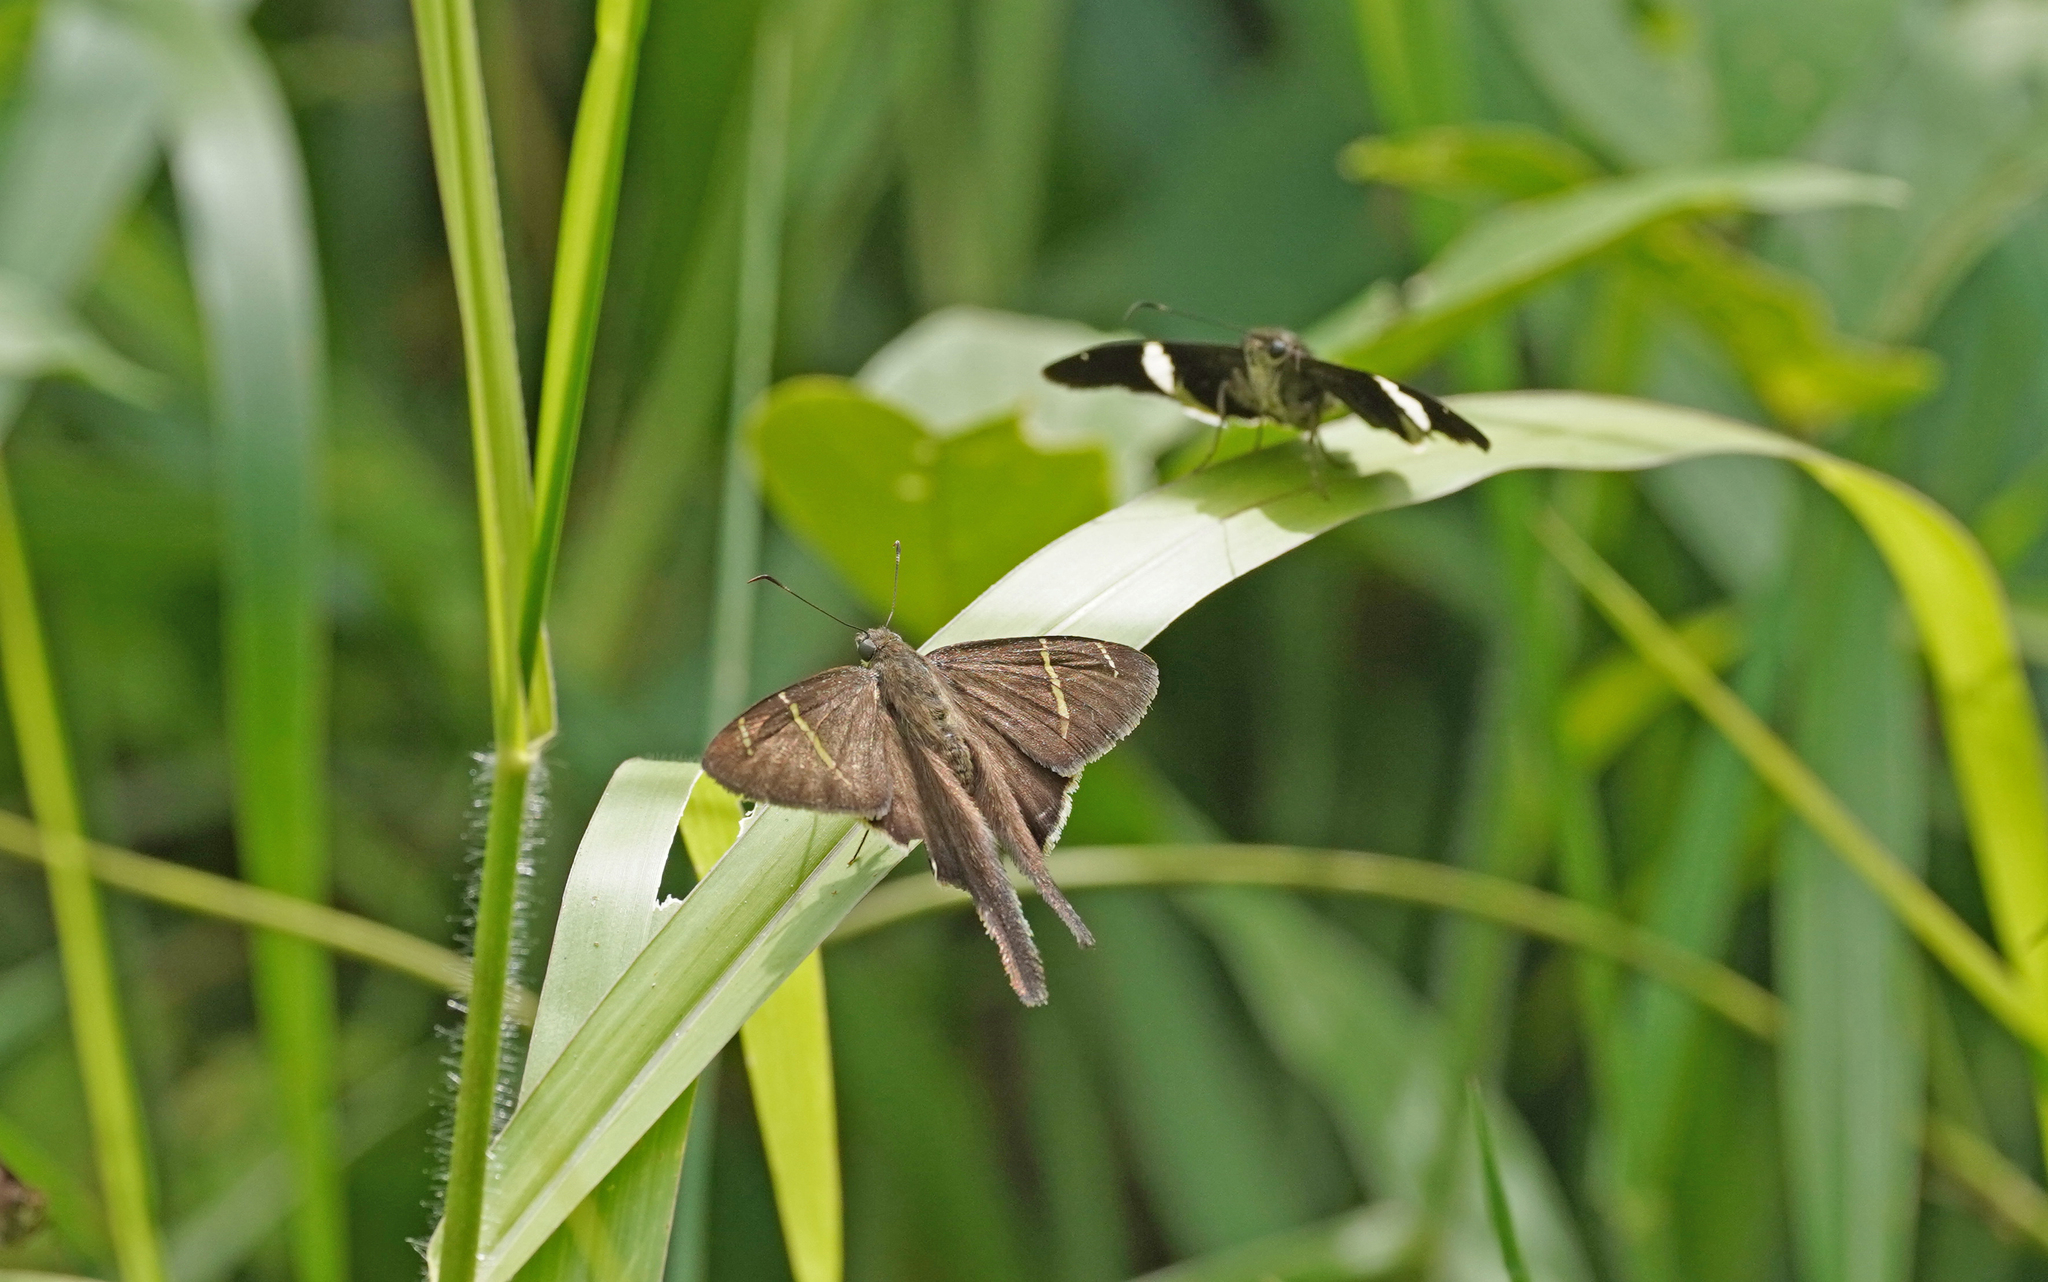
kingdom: Animalia
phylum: Arthropoda
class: Insecta
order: Lepidoptera
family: Hesperiidae
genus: Urbanus
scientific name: Urbanus tanna
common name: Tanna longtail
